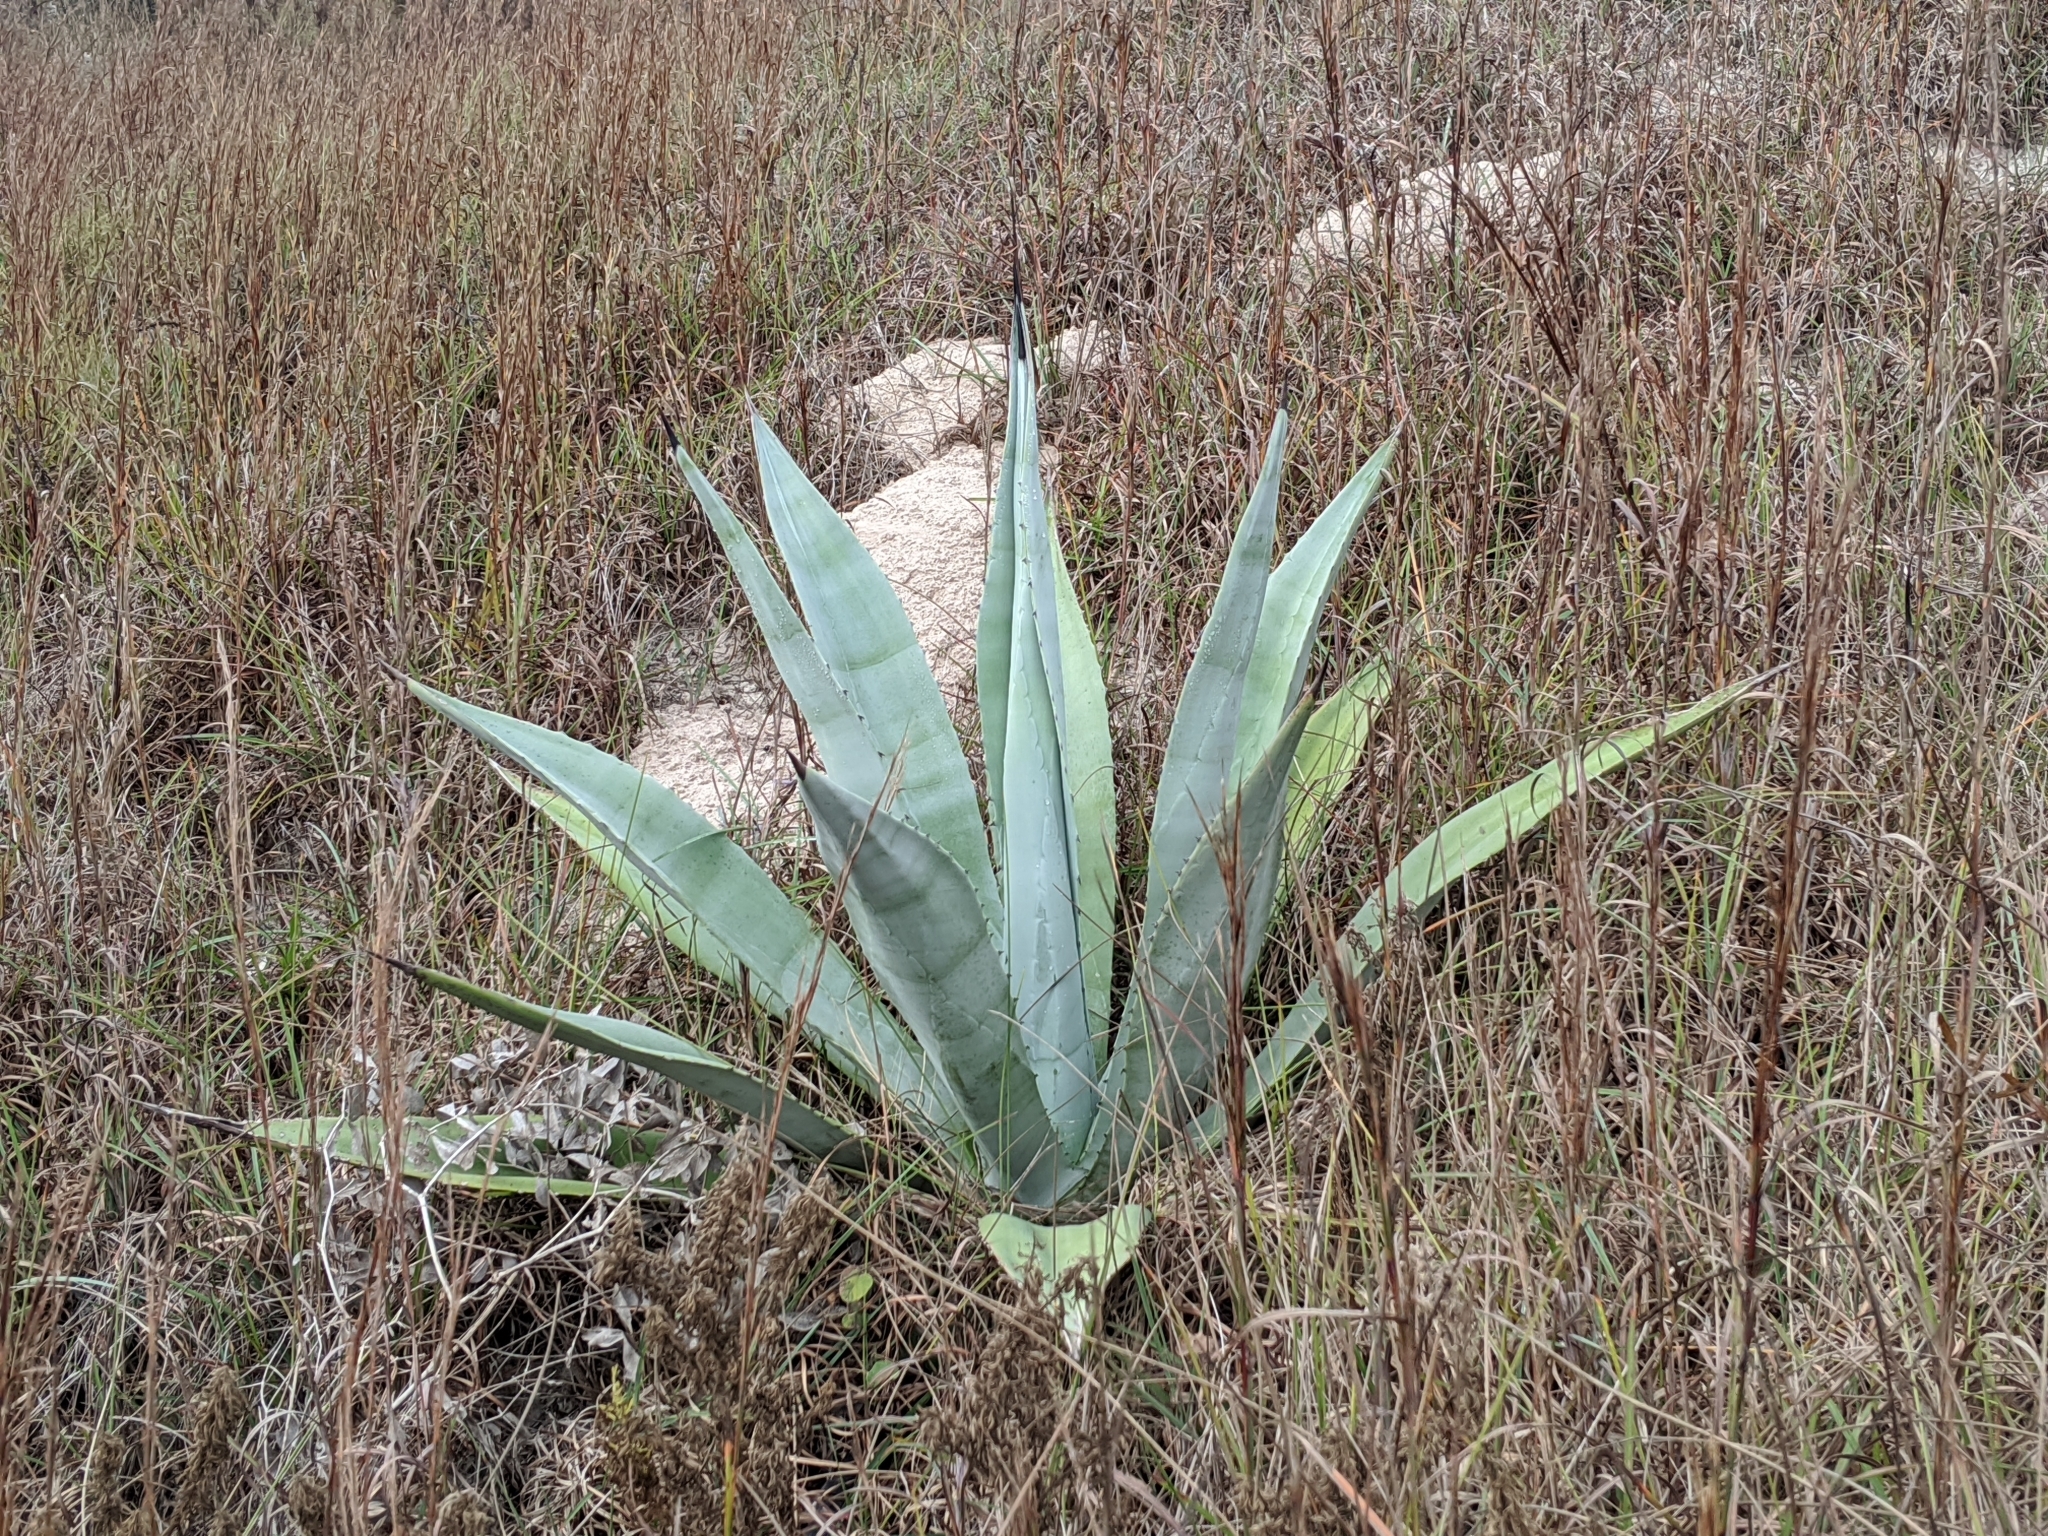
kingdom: Plantae
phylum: Tracheophyta
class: Liliopsida
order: Asparagales
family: Asparagaceae
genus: Agave
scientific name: Agave americana
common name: Centuryplant
